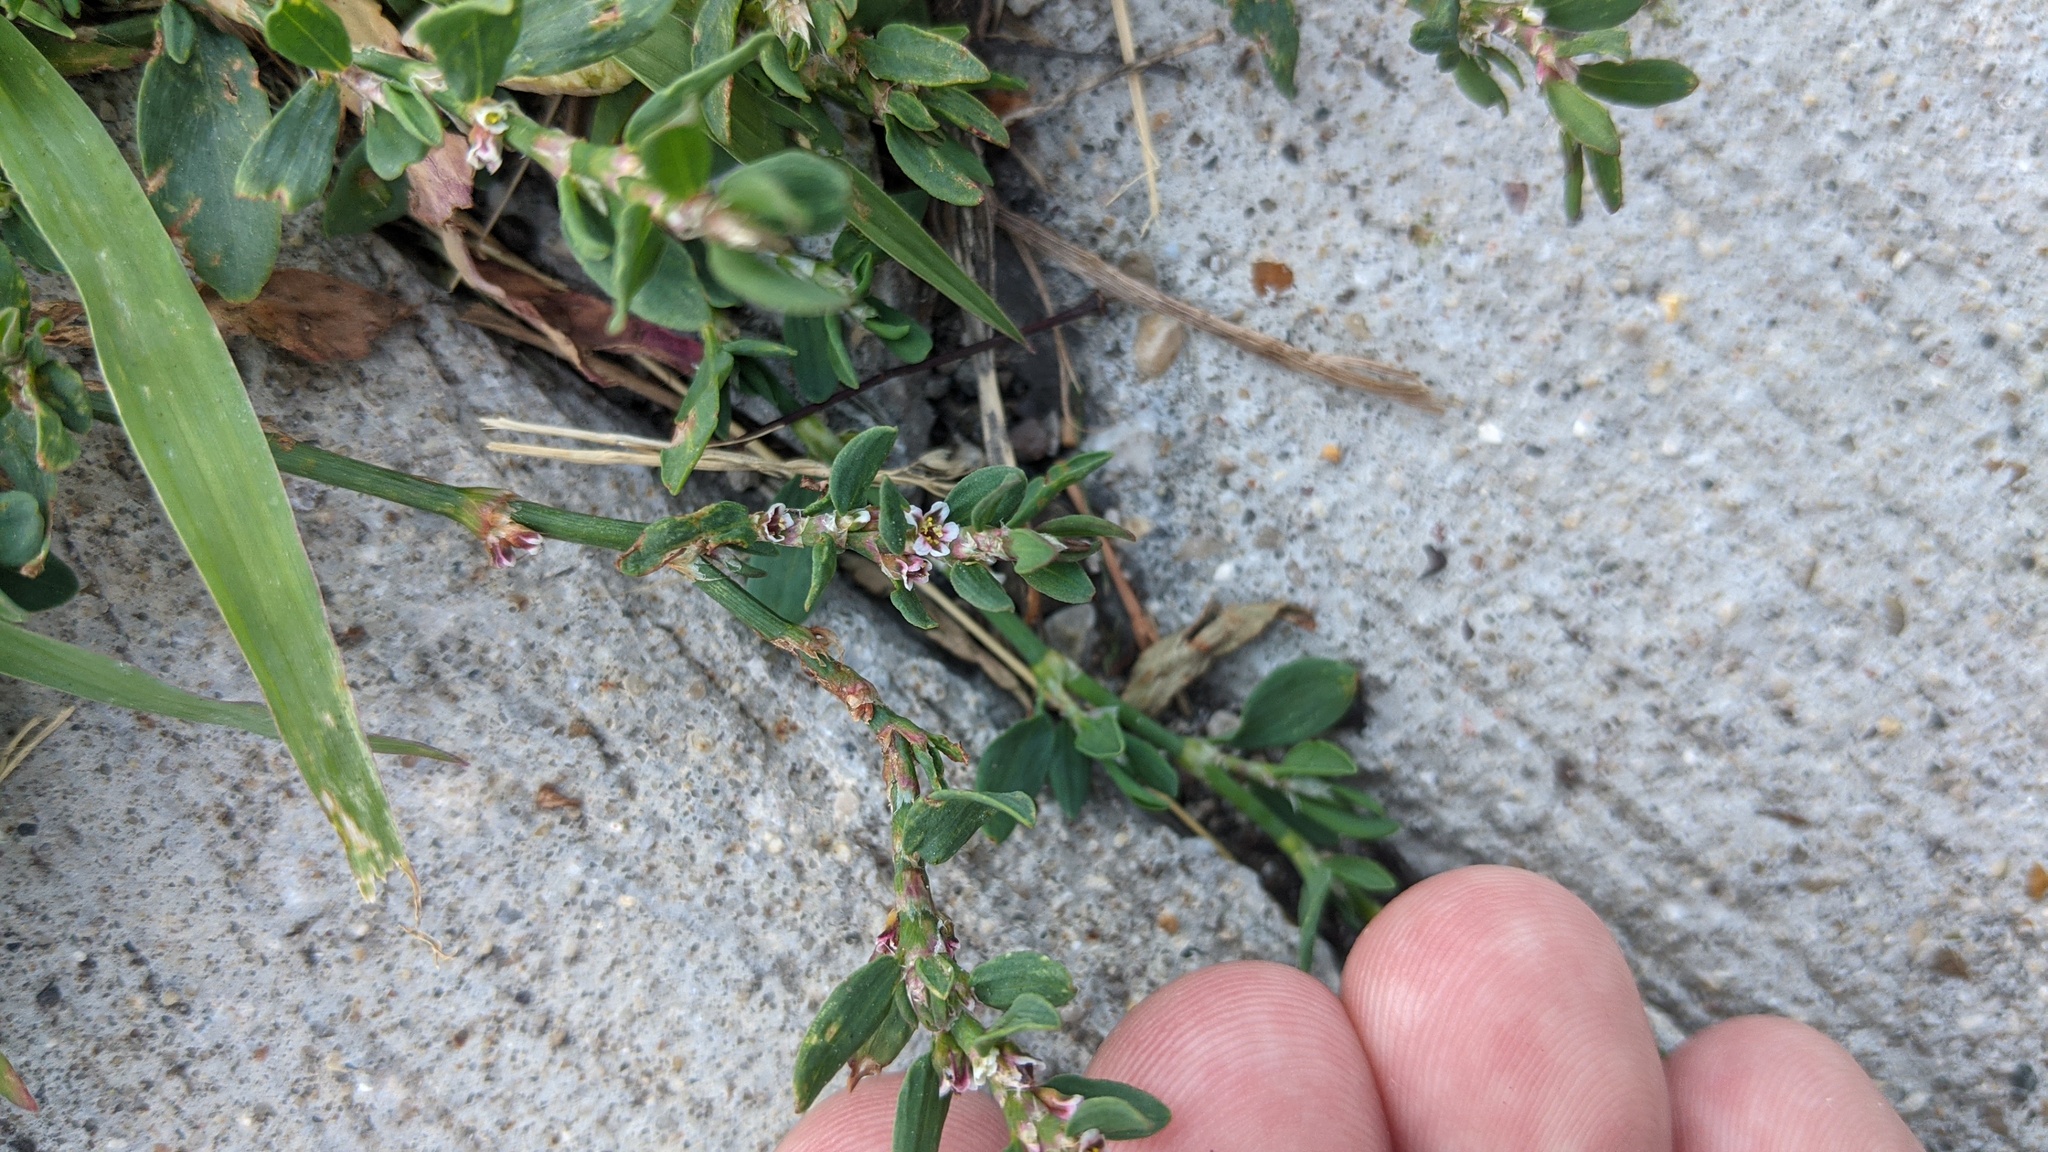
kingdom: Plantae
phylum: Tracheophyta
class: Magnoliopsida
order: Caryophyllales
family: Polygonaceae
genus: Polygonum
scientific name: Polygonum aviculare
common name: Prostrate knotweed
